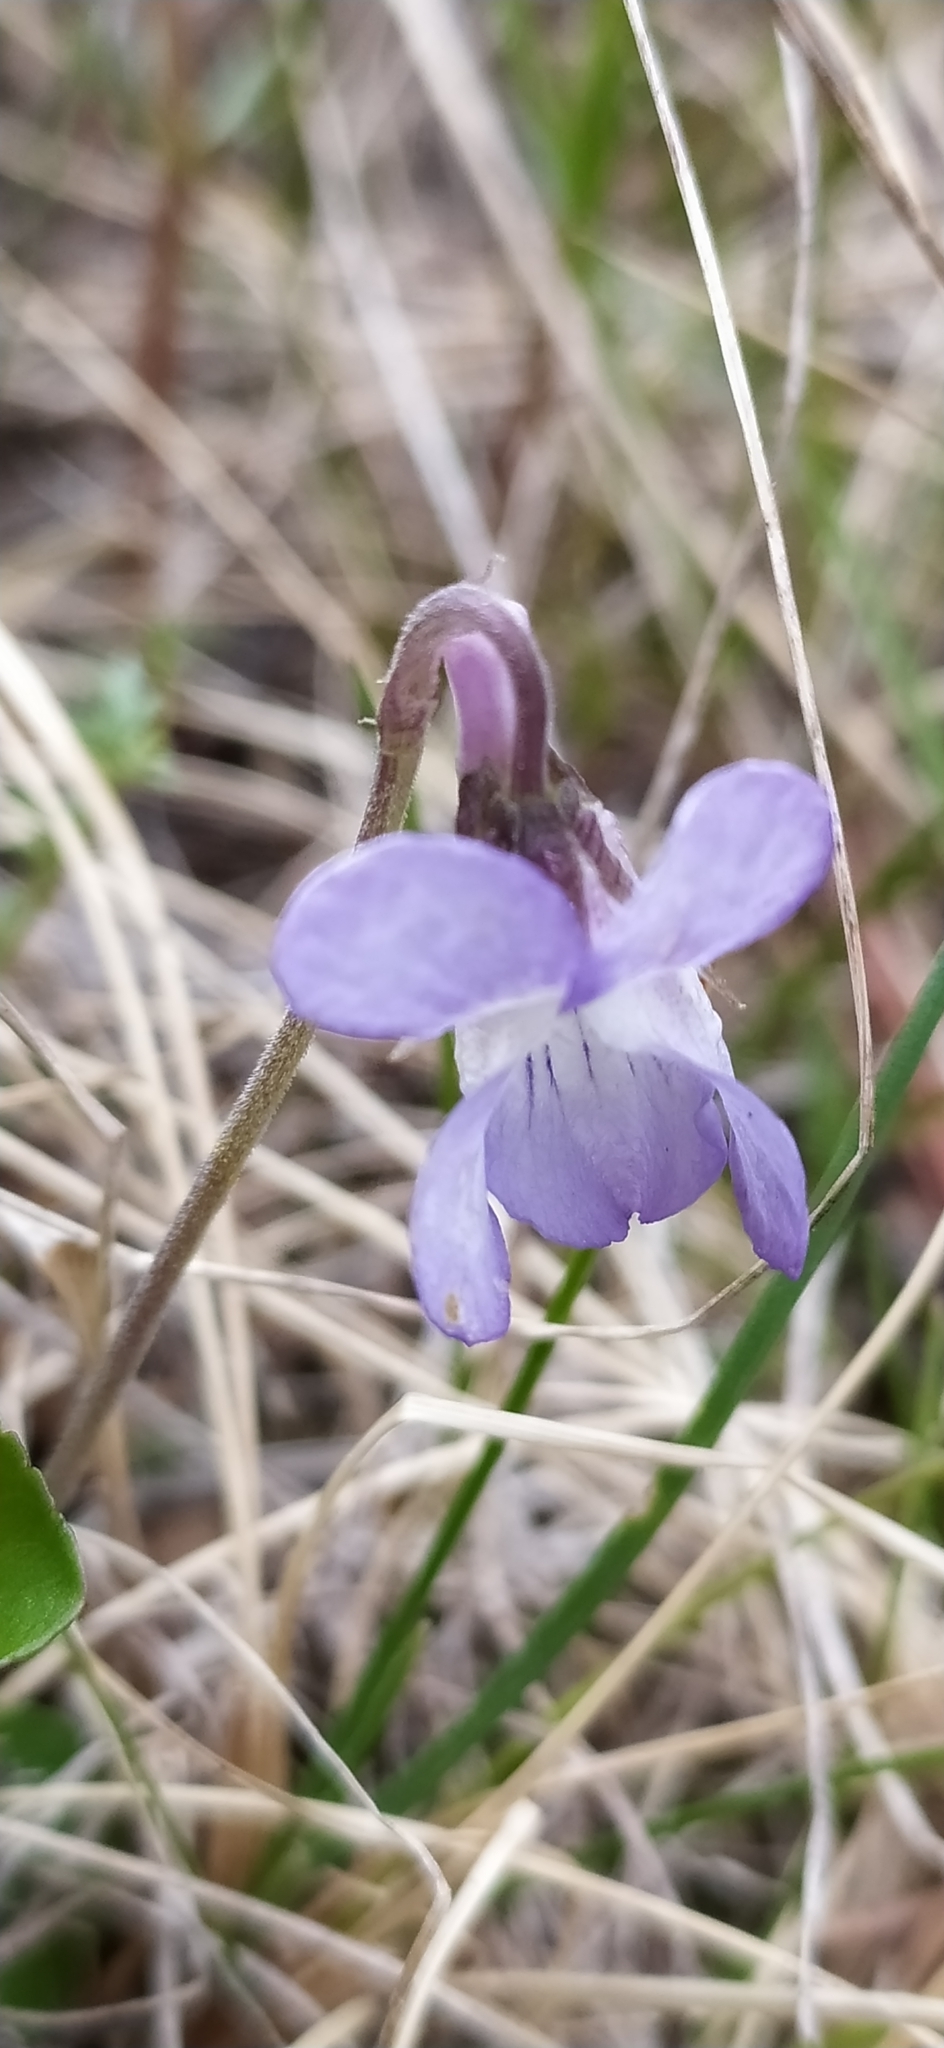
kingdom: Plantae
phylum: Tracheophyta
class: Magnoliopsida
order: Malpighiales
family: Violaceae
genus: Viola
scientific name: Viola rupestris
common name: Teesdale violet
